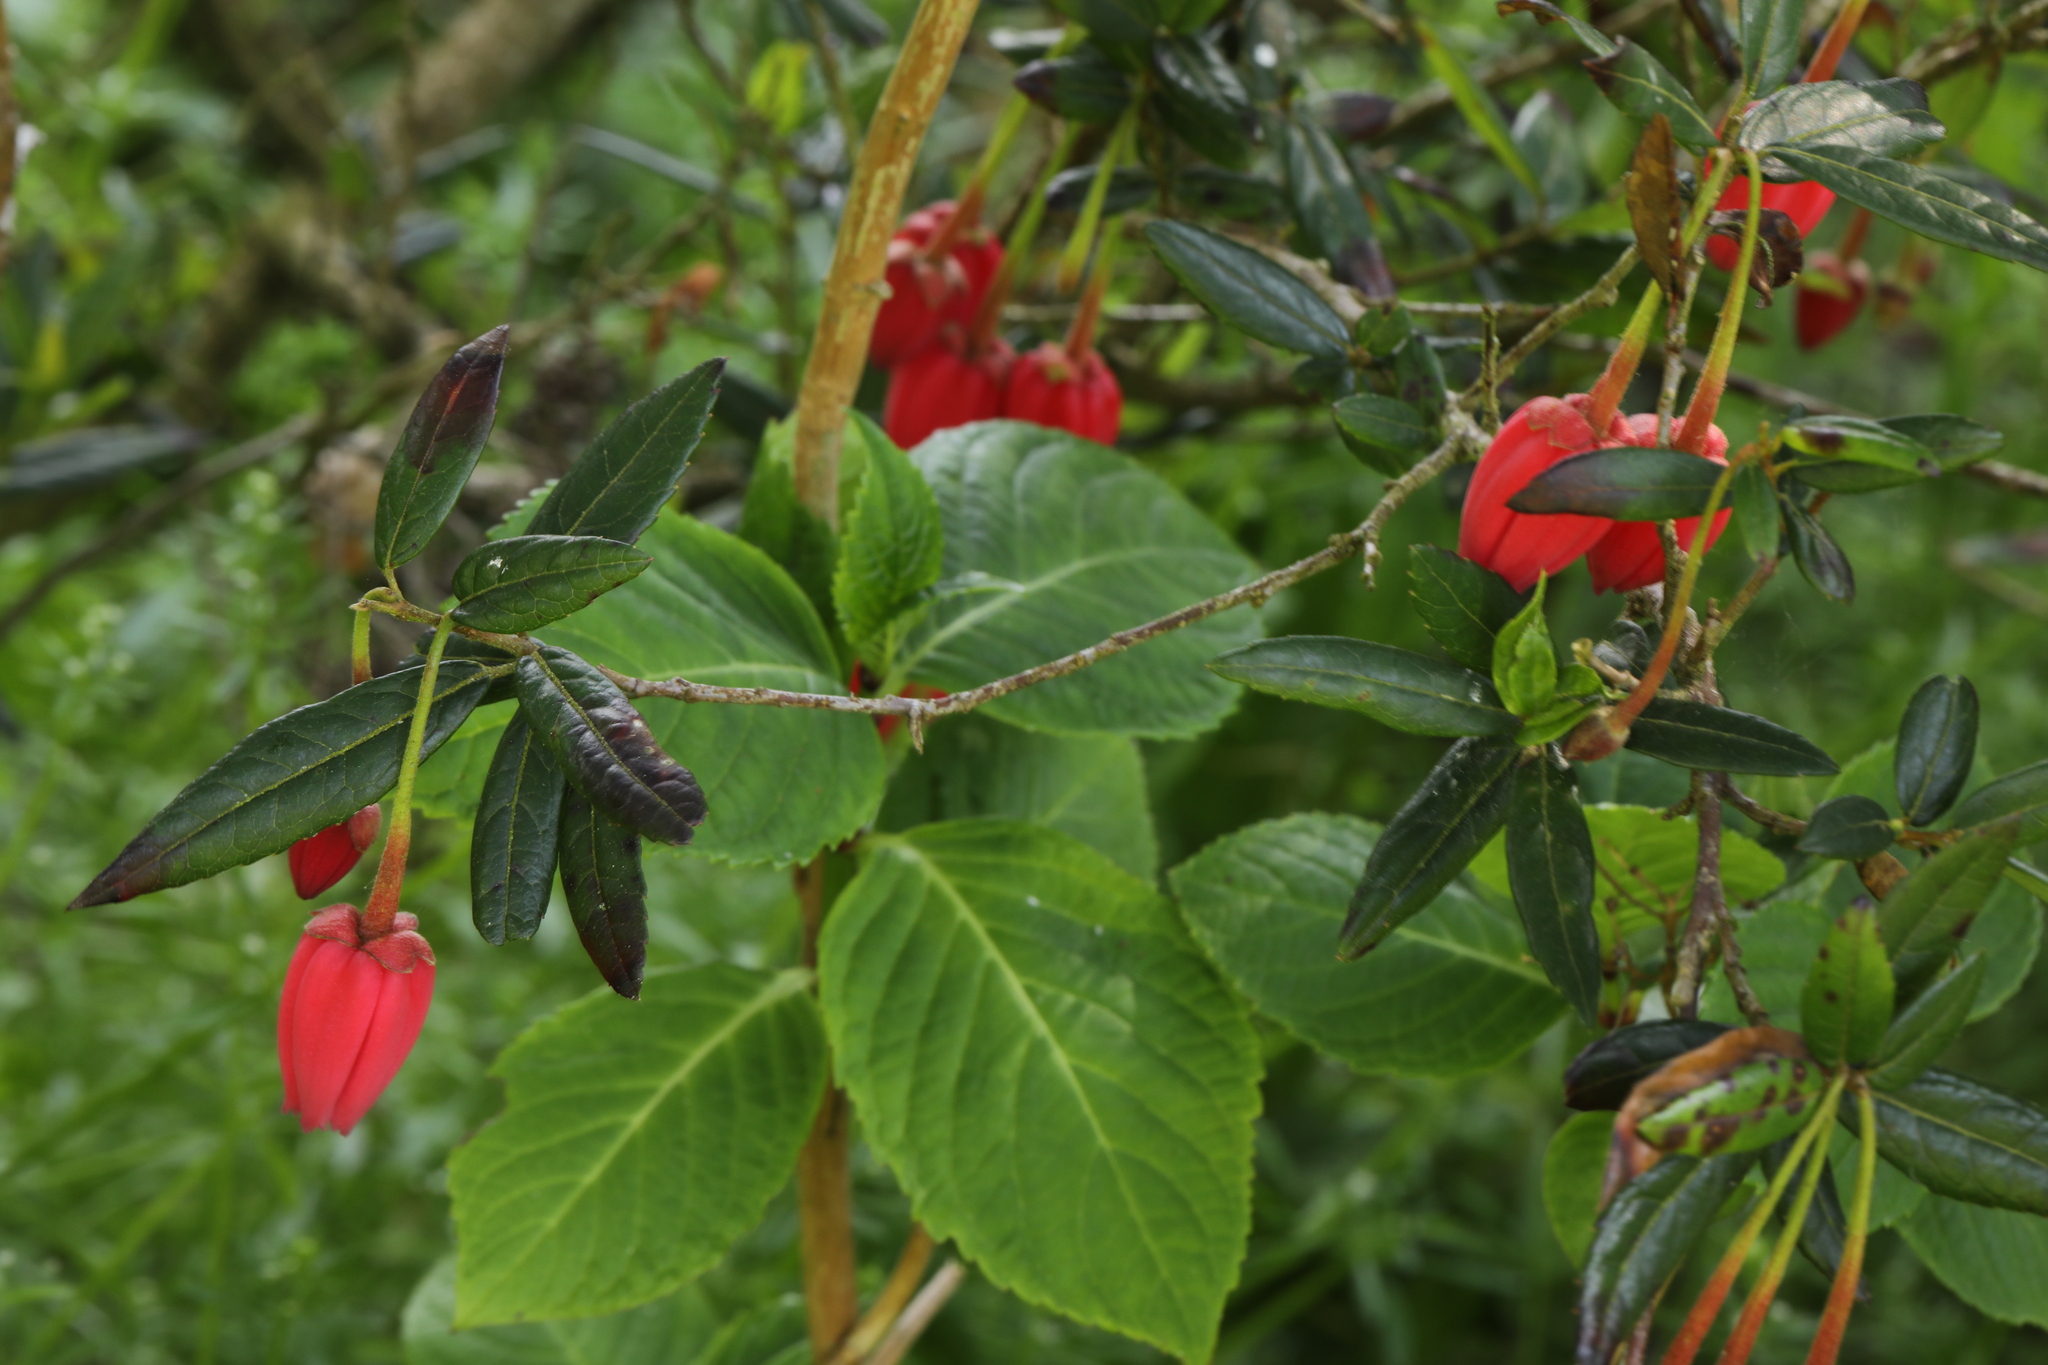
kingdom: Plantae
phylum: Tracheophyta
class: Magnoliopsida
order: Oxalidales
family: Elaeocarpaceae
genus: Crinodendron
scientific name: Crinodendron hookerianum
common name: Lanterntree
